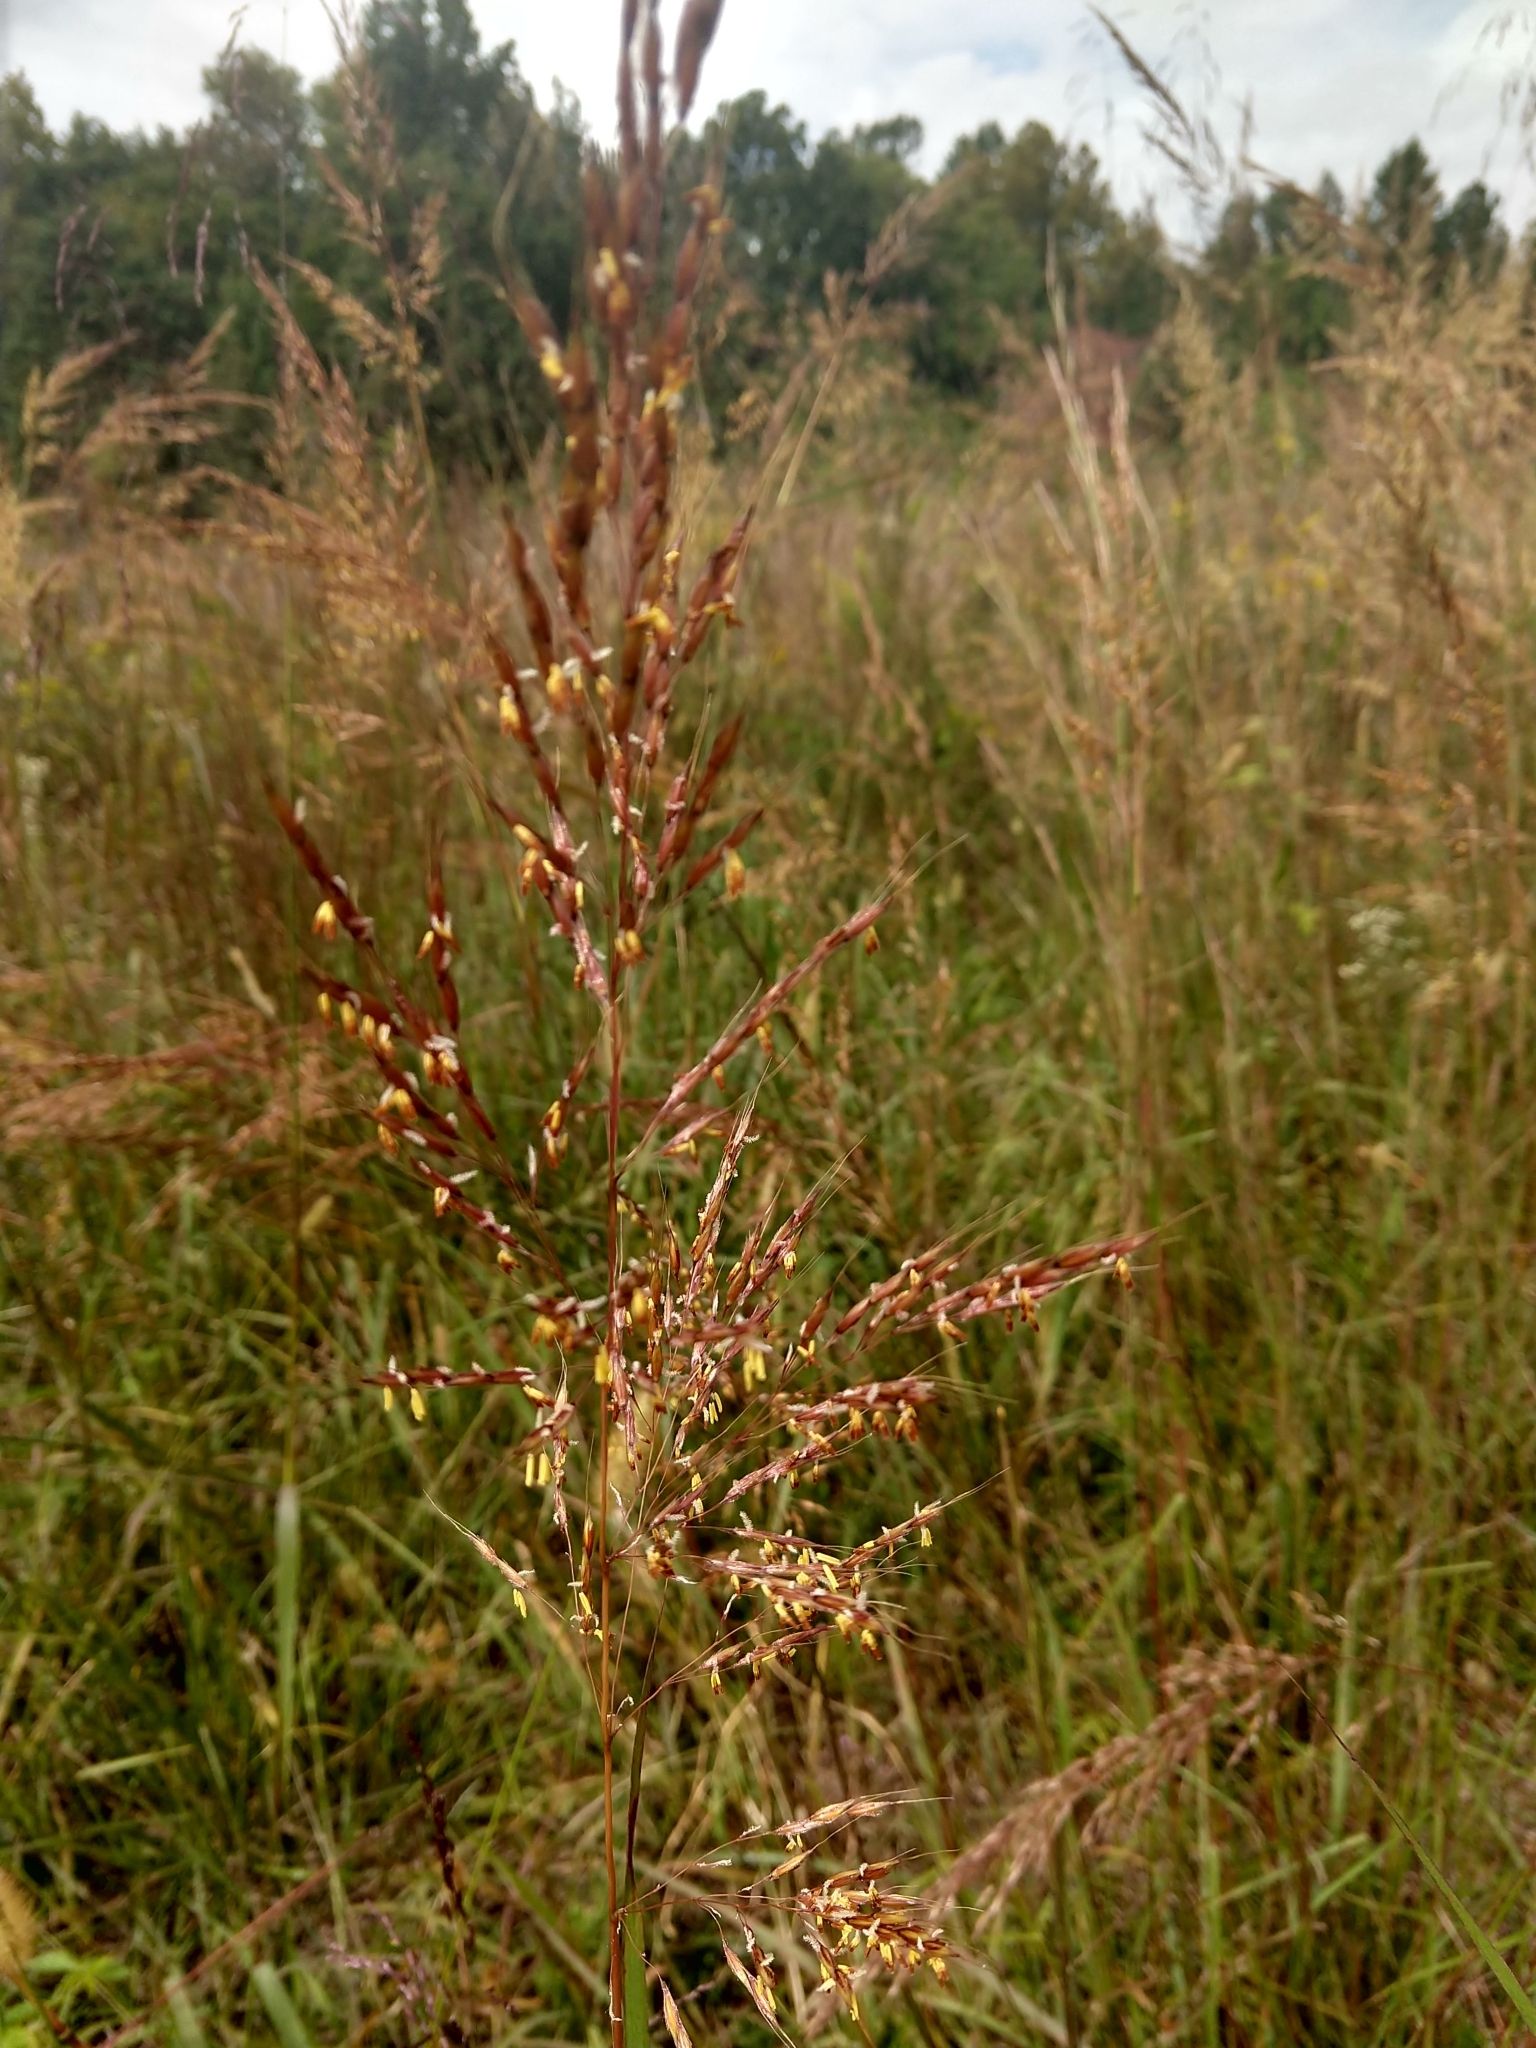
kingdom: Plantae
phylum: Tracheophyta
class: Liliopsida
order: Poales
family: Poaceae
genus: Sorghastrum
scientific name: Sorghastrum nutans
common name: Indian grass
